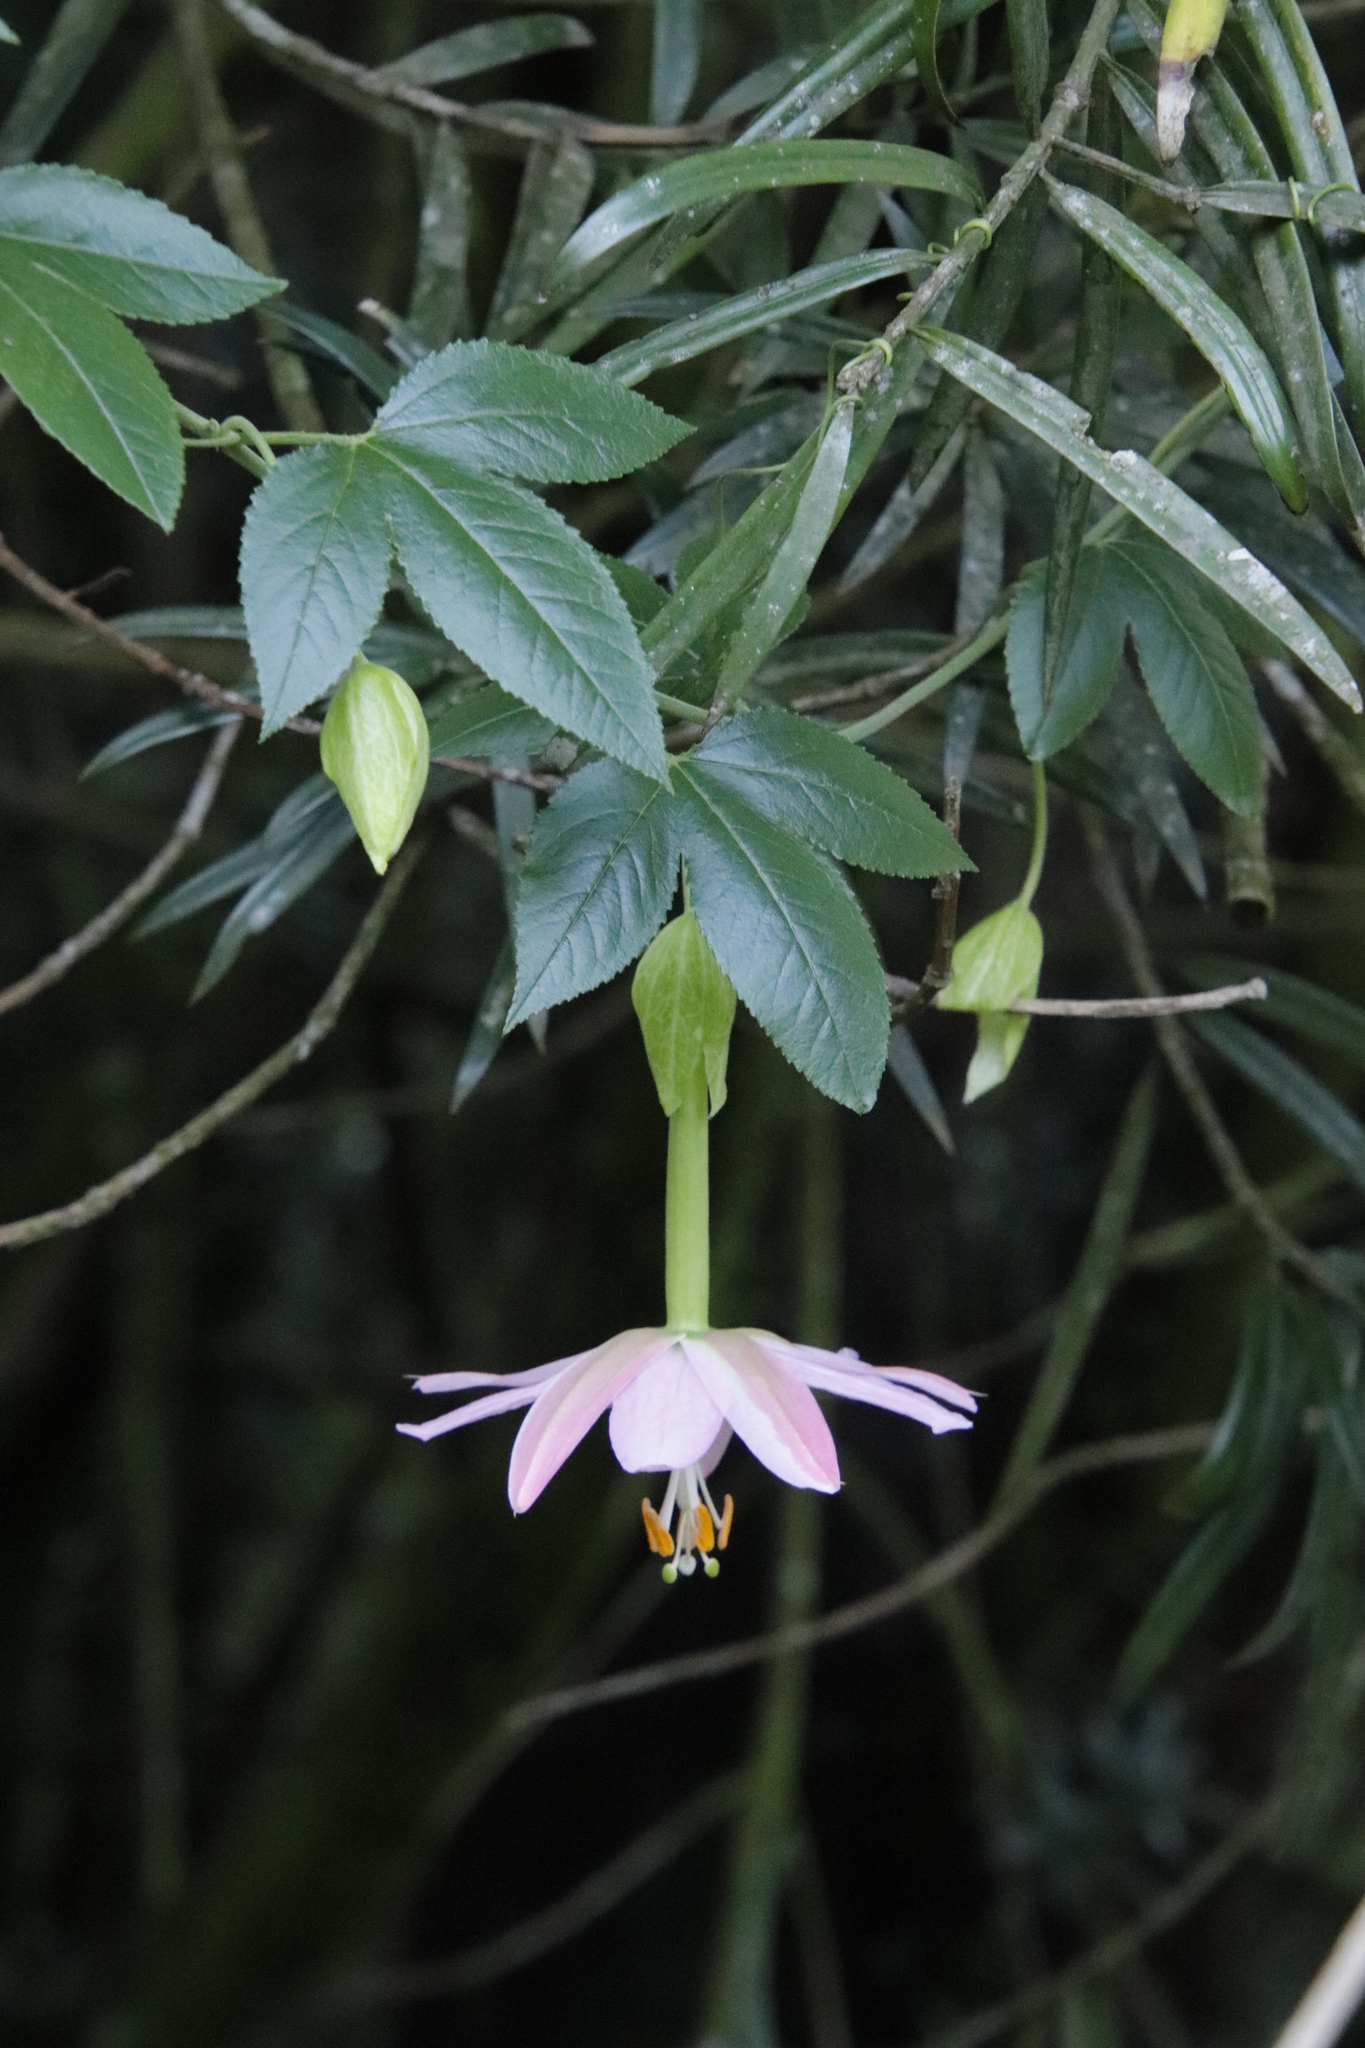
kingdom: Plantae
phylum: Tracheophyta
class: Magnoliopsida
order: Malpighiales
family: Passifloraceae
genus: Passiflora
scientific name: Passiflora tarminiana
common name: Banana poka
